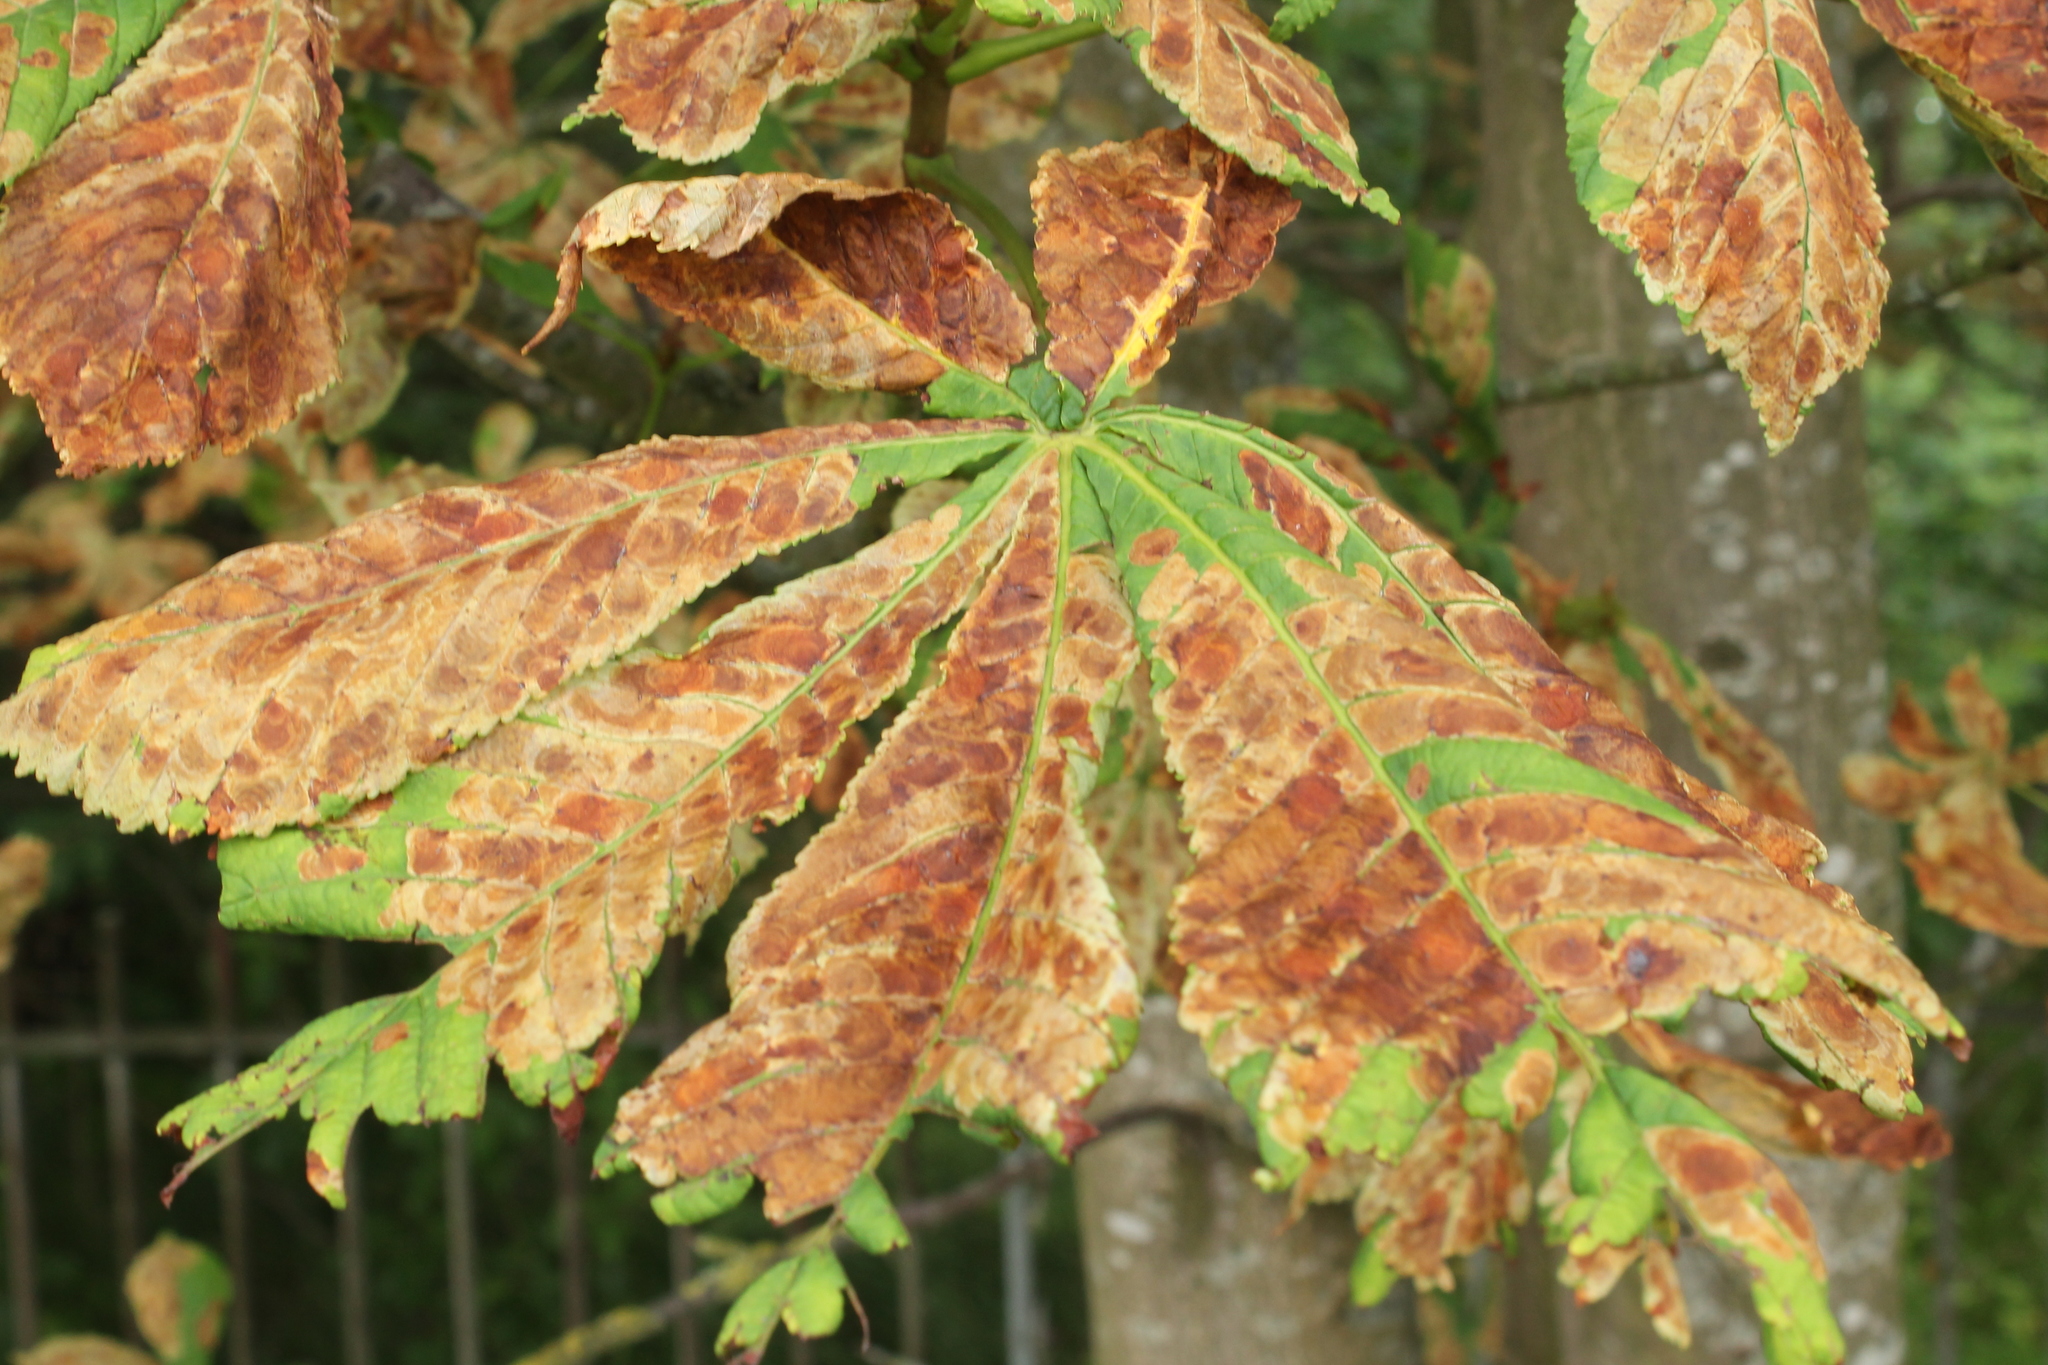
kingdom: Animalia
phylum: Arthropoda
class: Insecta
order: Lepidoptera
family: Gracillariidae
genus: Cameraria
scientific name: Cameraria ohridella
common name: Horse-chestnut leaf-miner
